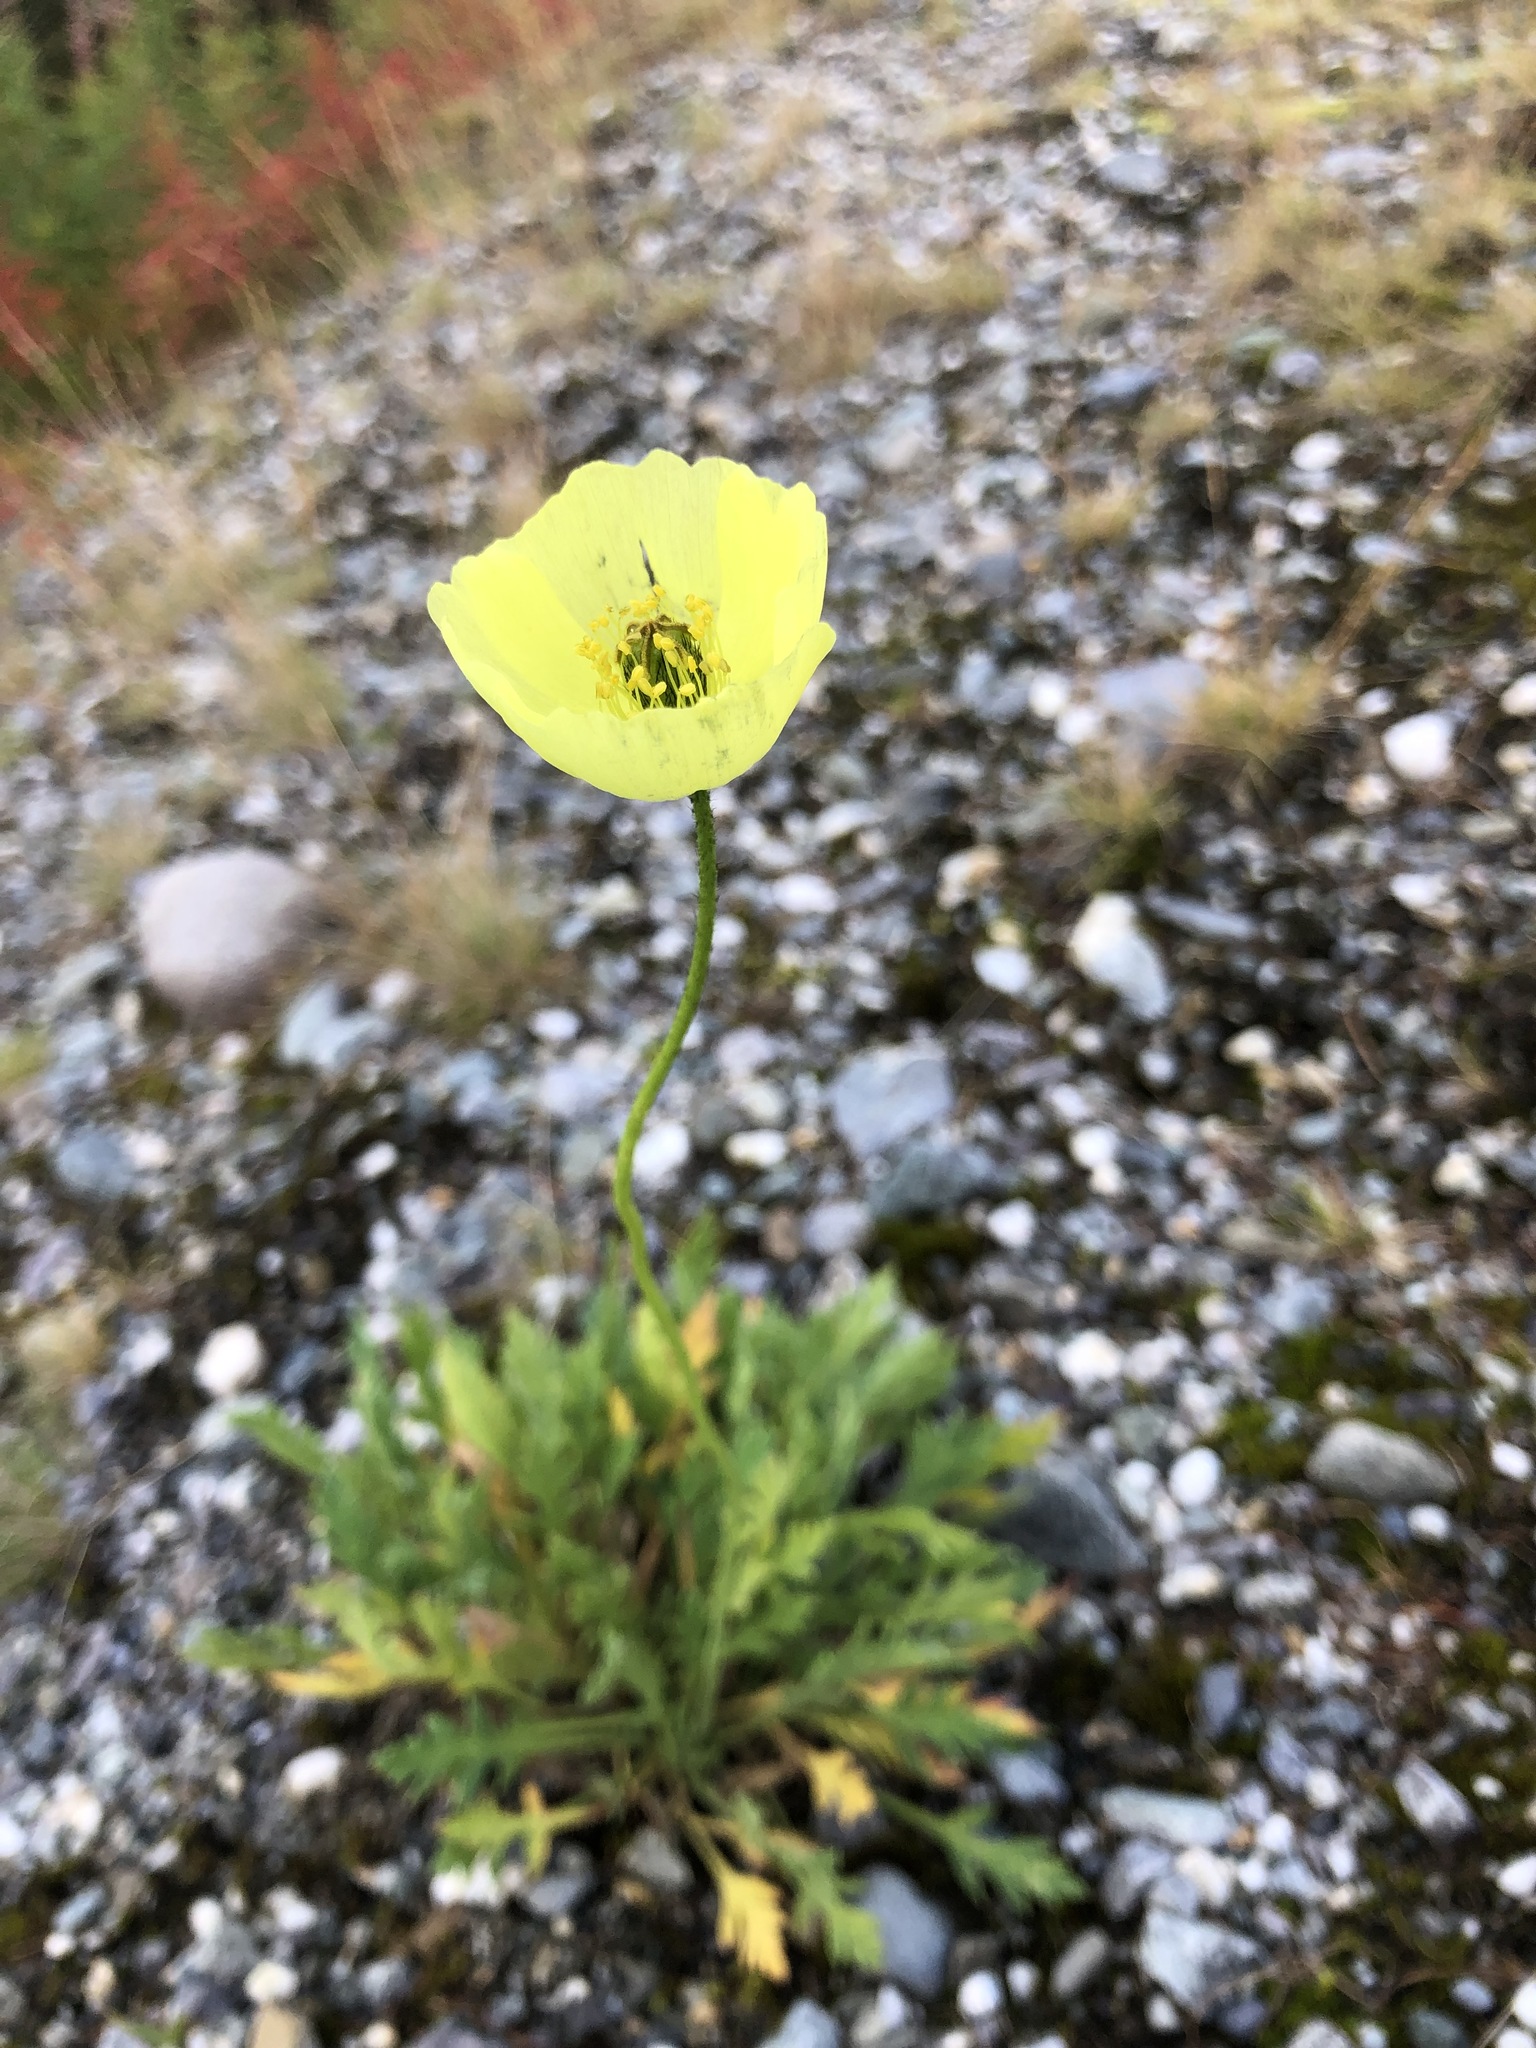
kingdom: Plantae
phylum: Tracheophyta
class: Magnoliopsida
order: Ranunculales
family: Papaveraceae
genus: Papaver
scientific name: Papaver lapponicum
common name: Lapland poppy
